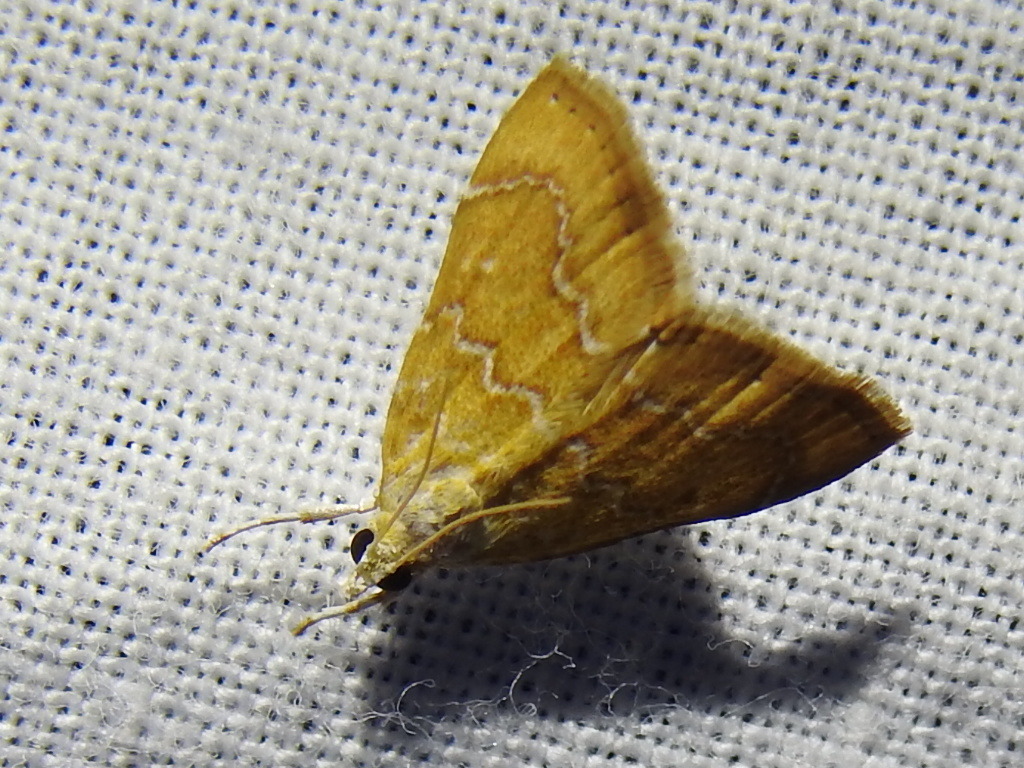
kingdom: Animalia
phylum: Arthropoda
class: Insecta
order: Lepidoptera
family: Crambidae
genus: Glaphyria
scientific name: Glaphyria sesquistrialis
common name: White-roped glaphyria
